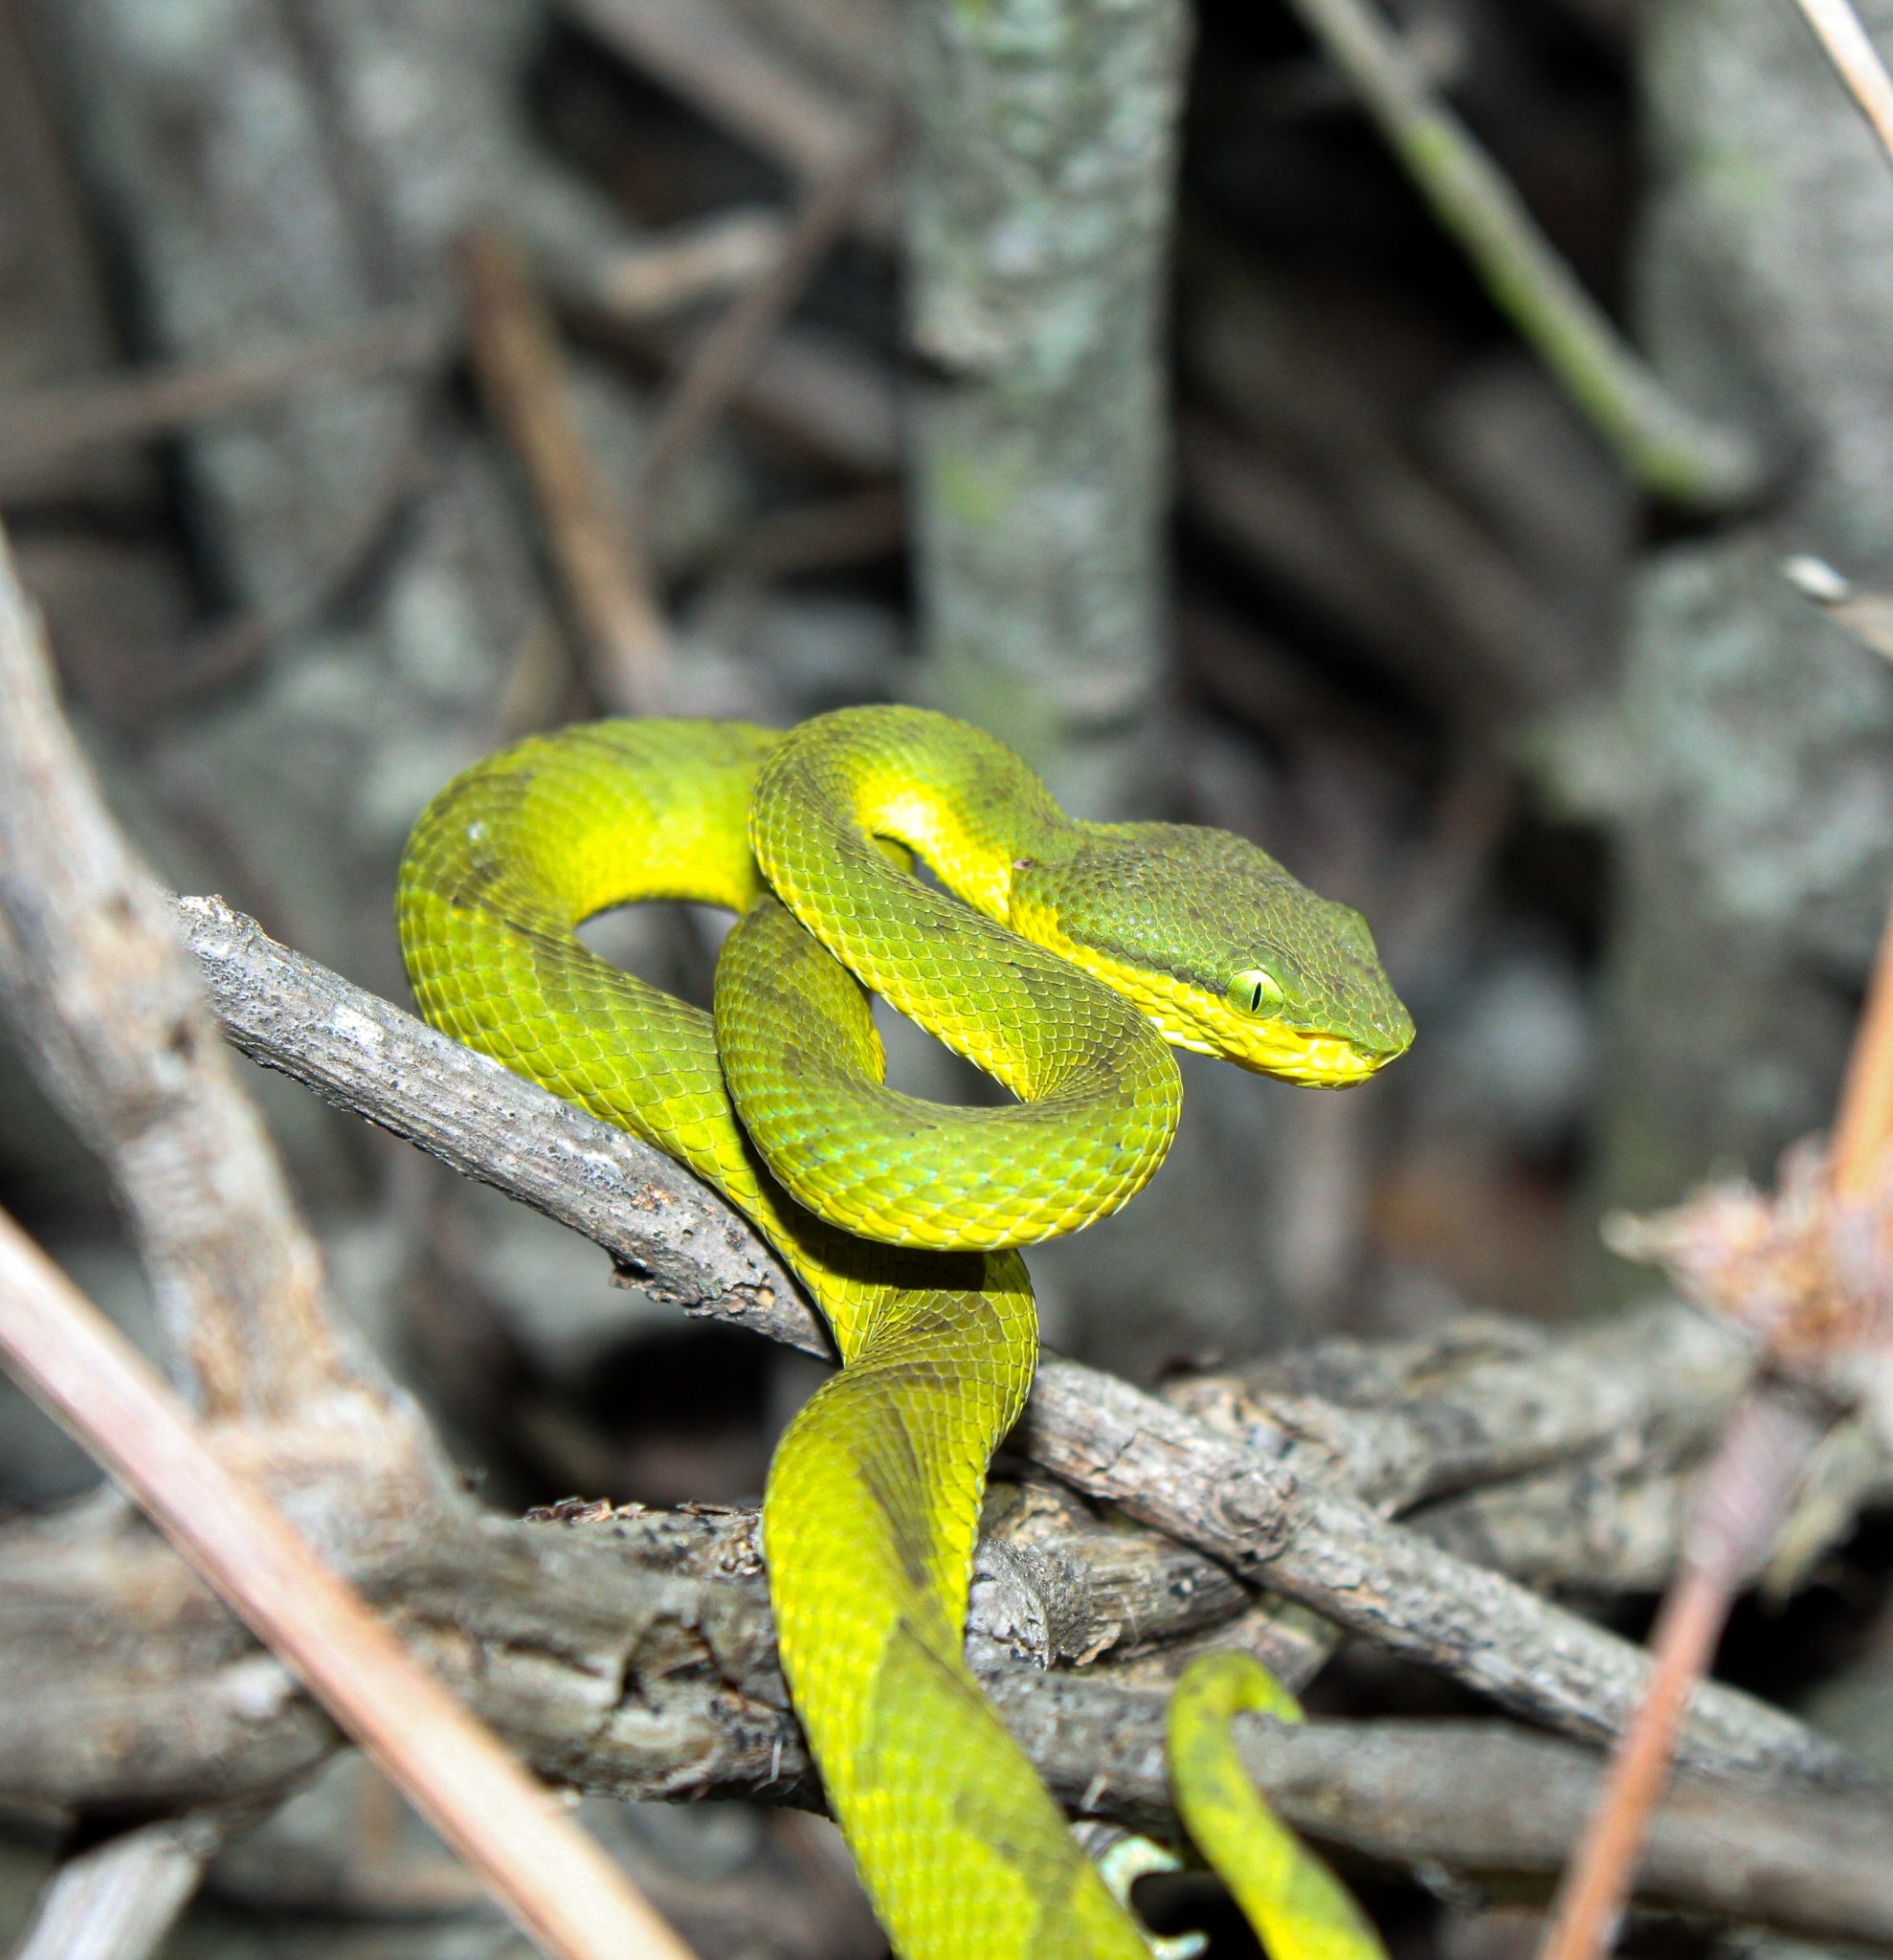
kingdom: Animalia
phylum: Chordata
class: Squamata
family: Viperidae
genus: Craspedocephalus
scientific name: Craspedocephalus gramineus
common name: Common bamboo viper
